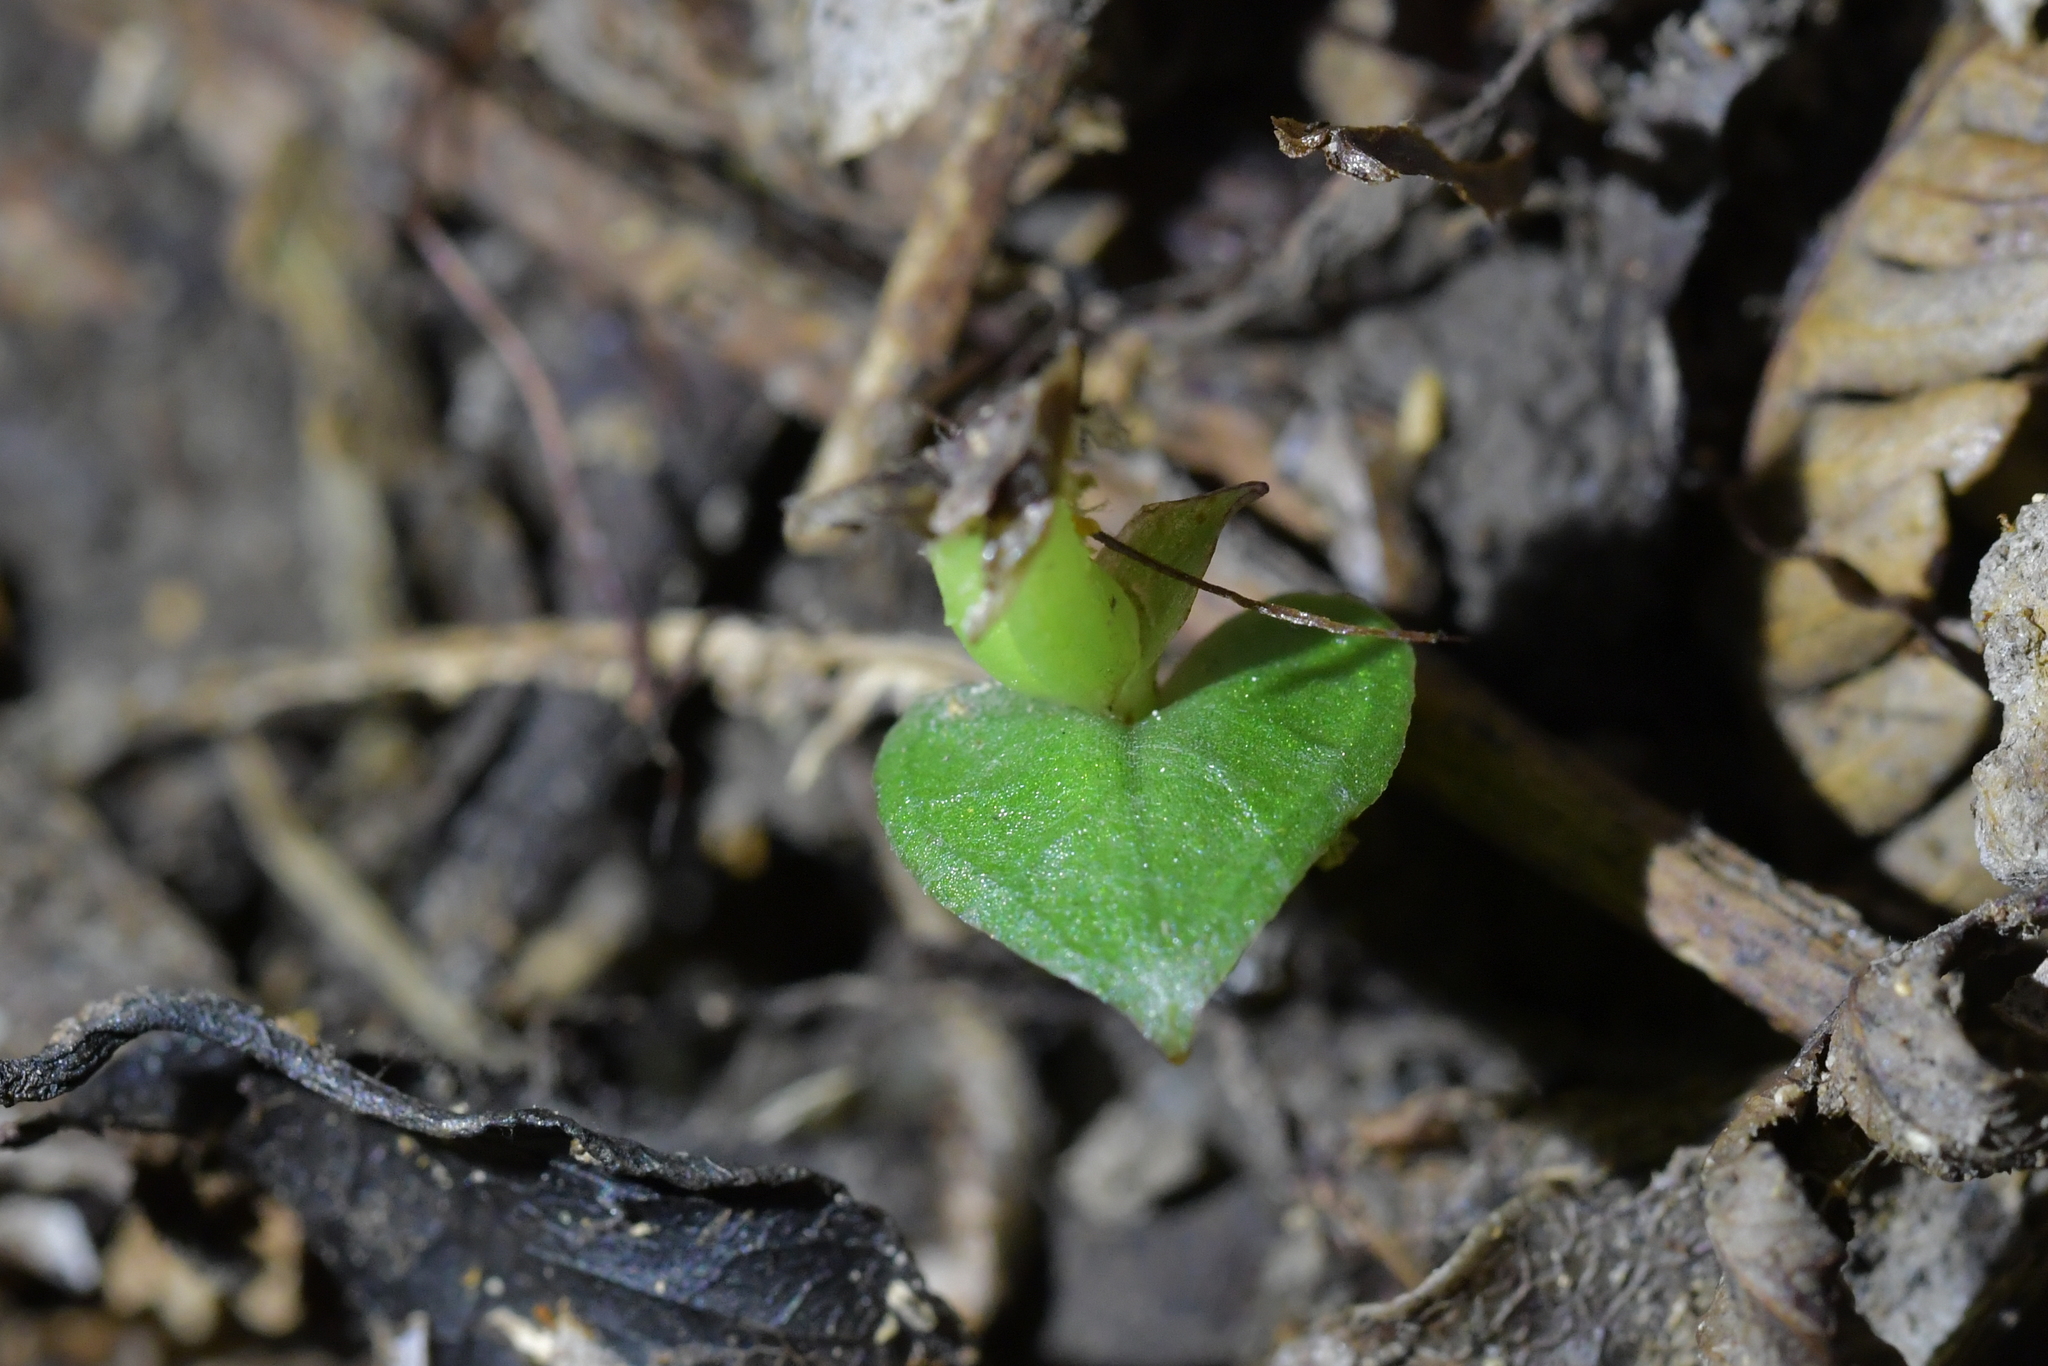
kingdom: Plantae
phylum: Tracheophyta
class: Liliopsida
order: Asparagales
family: Orchidaceae
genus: Corybas
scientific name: Corybas cheesemanii
